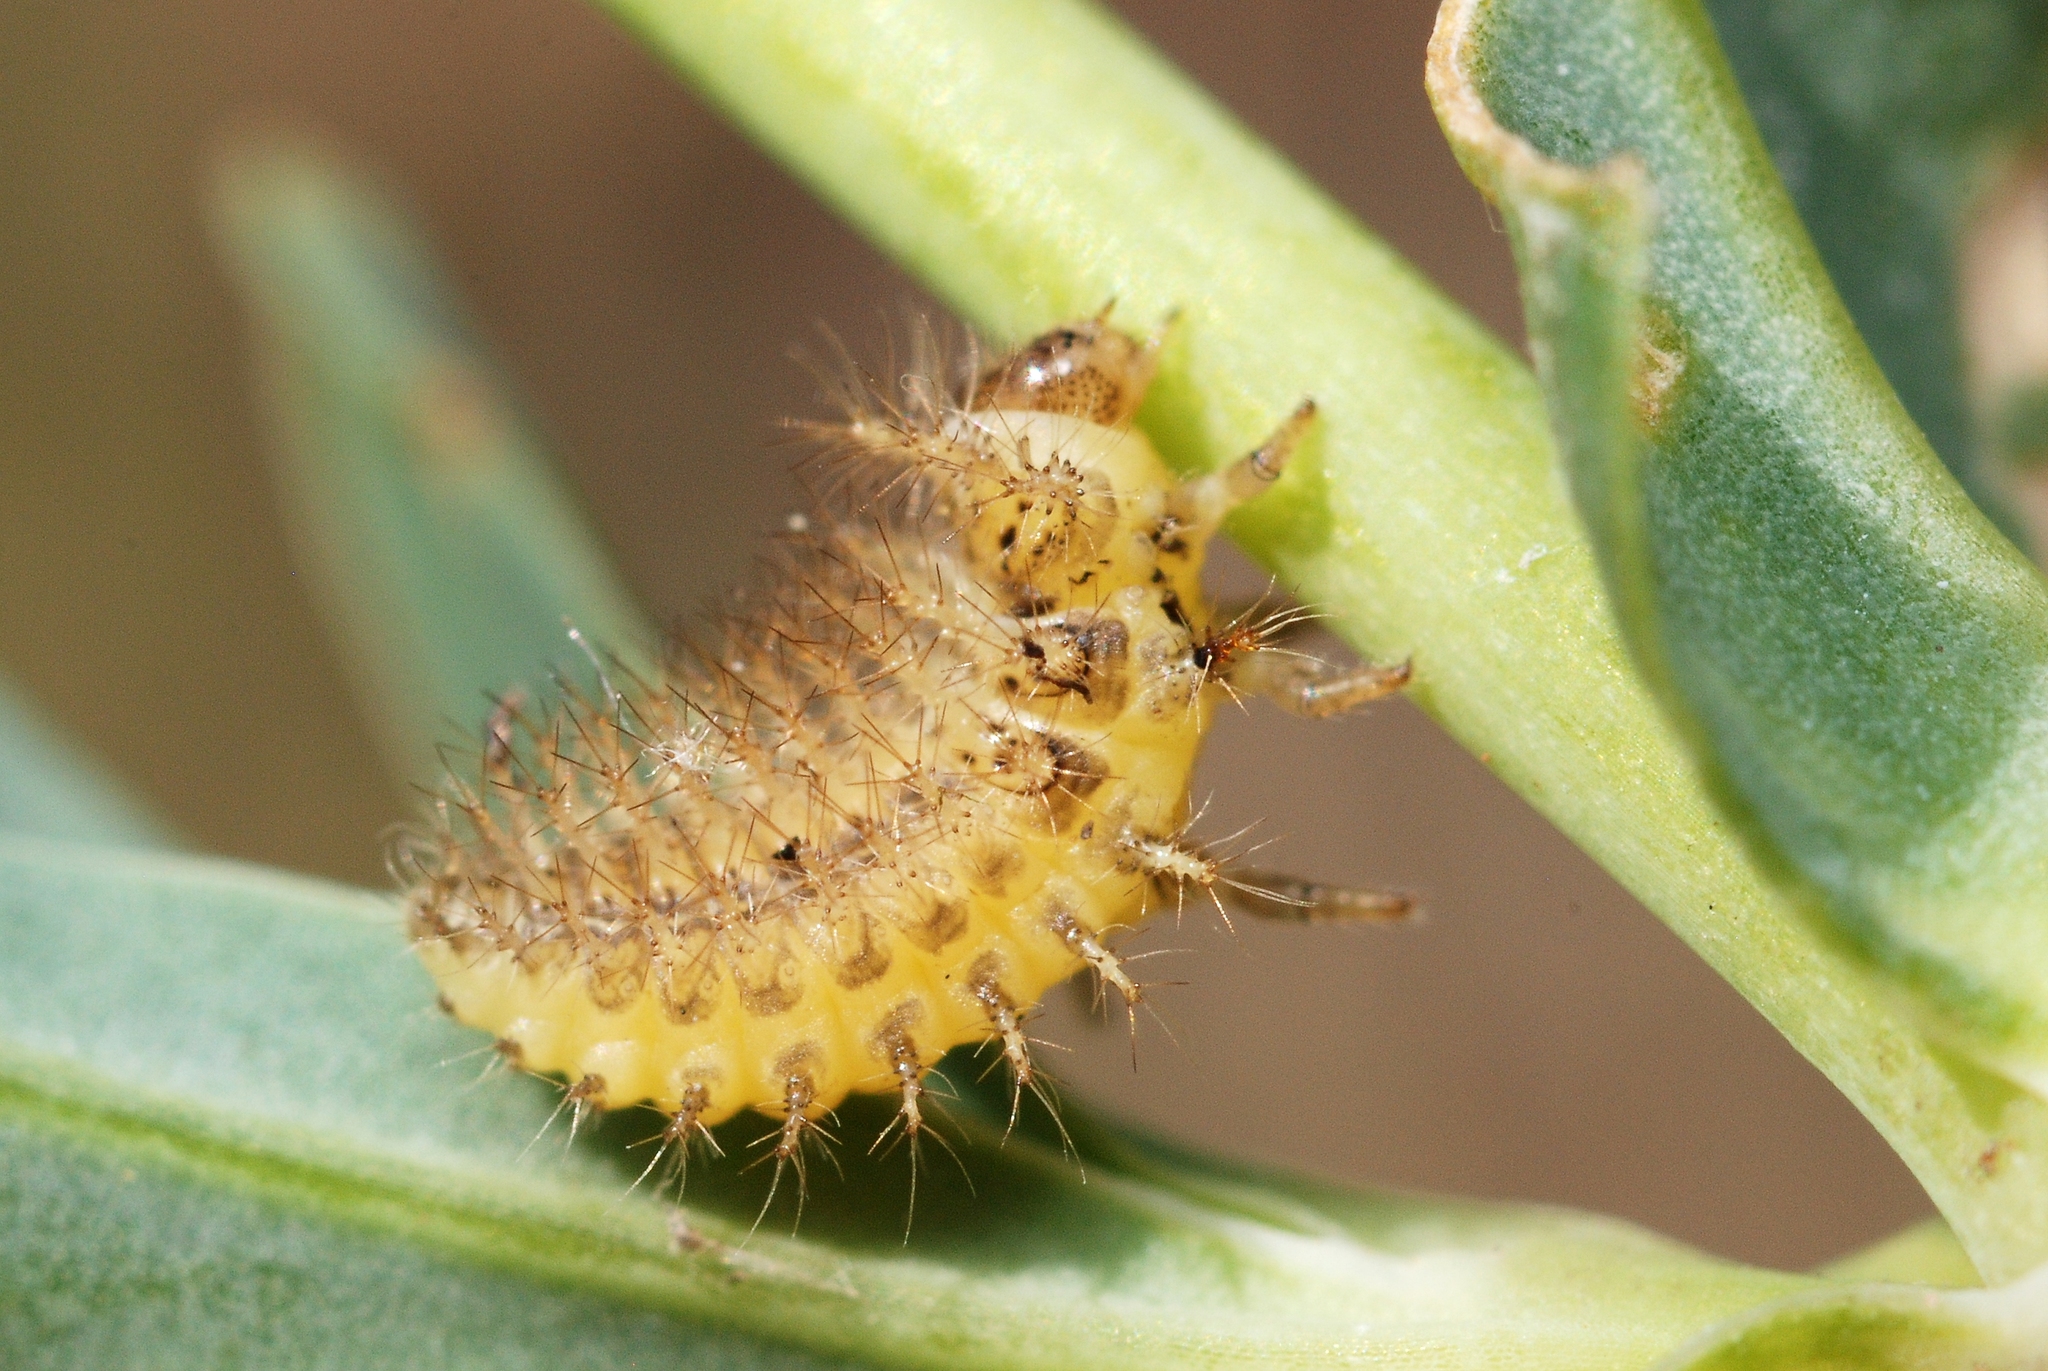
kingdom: Animalia
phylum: Arthropoda
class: Insecta
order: Coleoptera
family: Coccinellidae
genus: Subcoccinella
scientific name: Subcoccinella vigintiquatuorpunctata
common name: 24-spot ladybird
